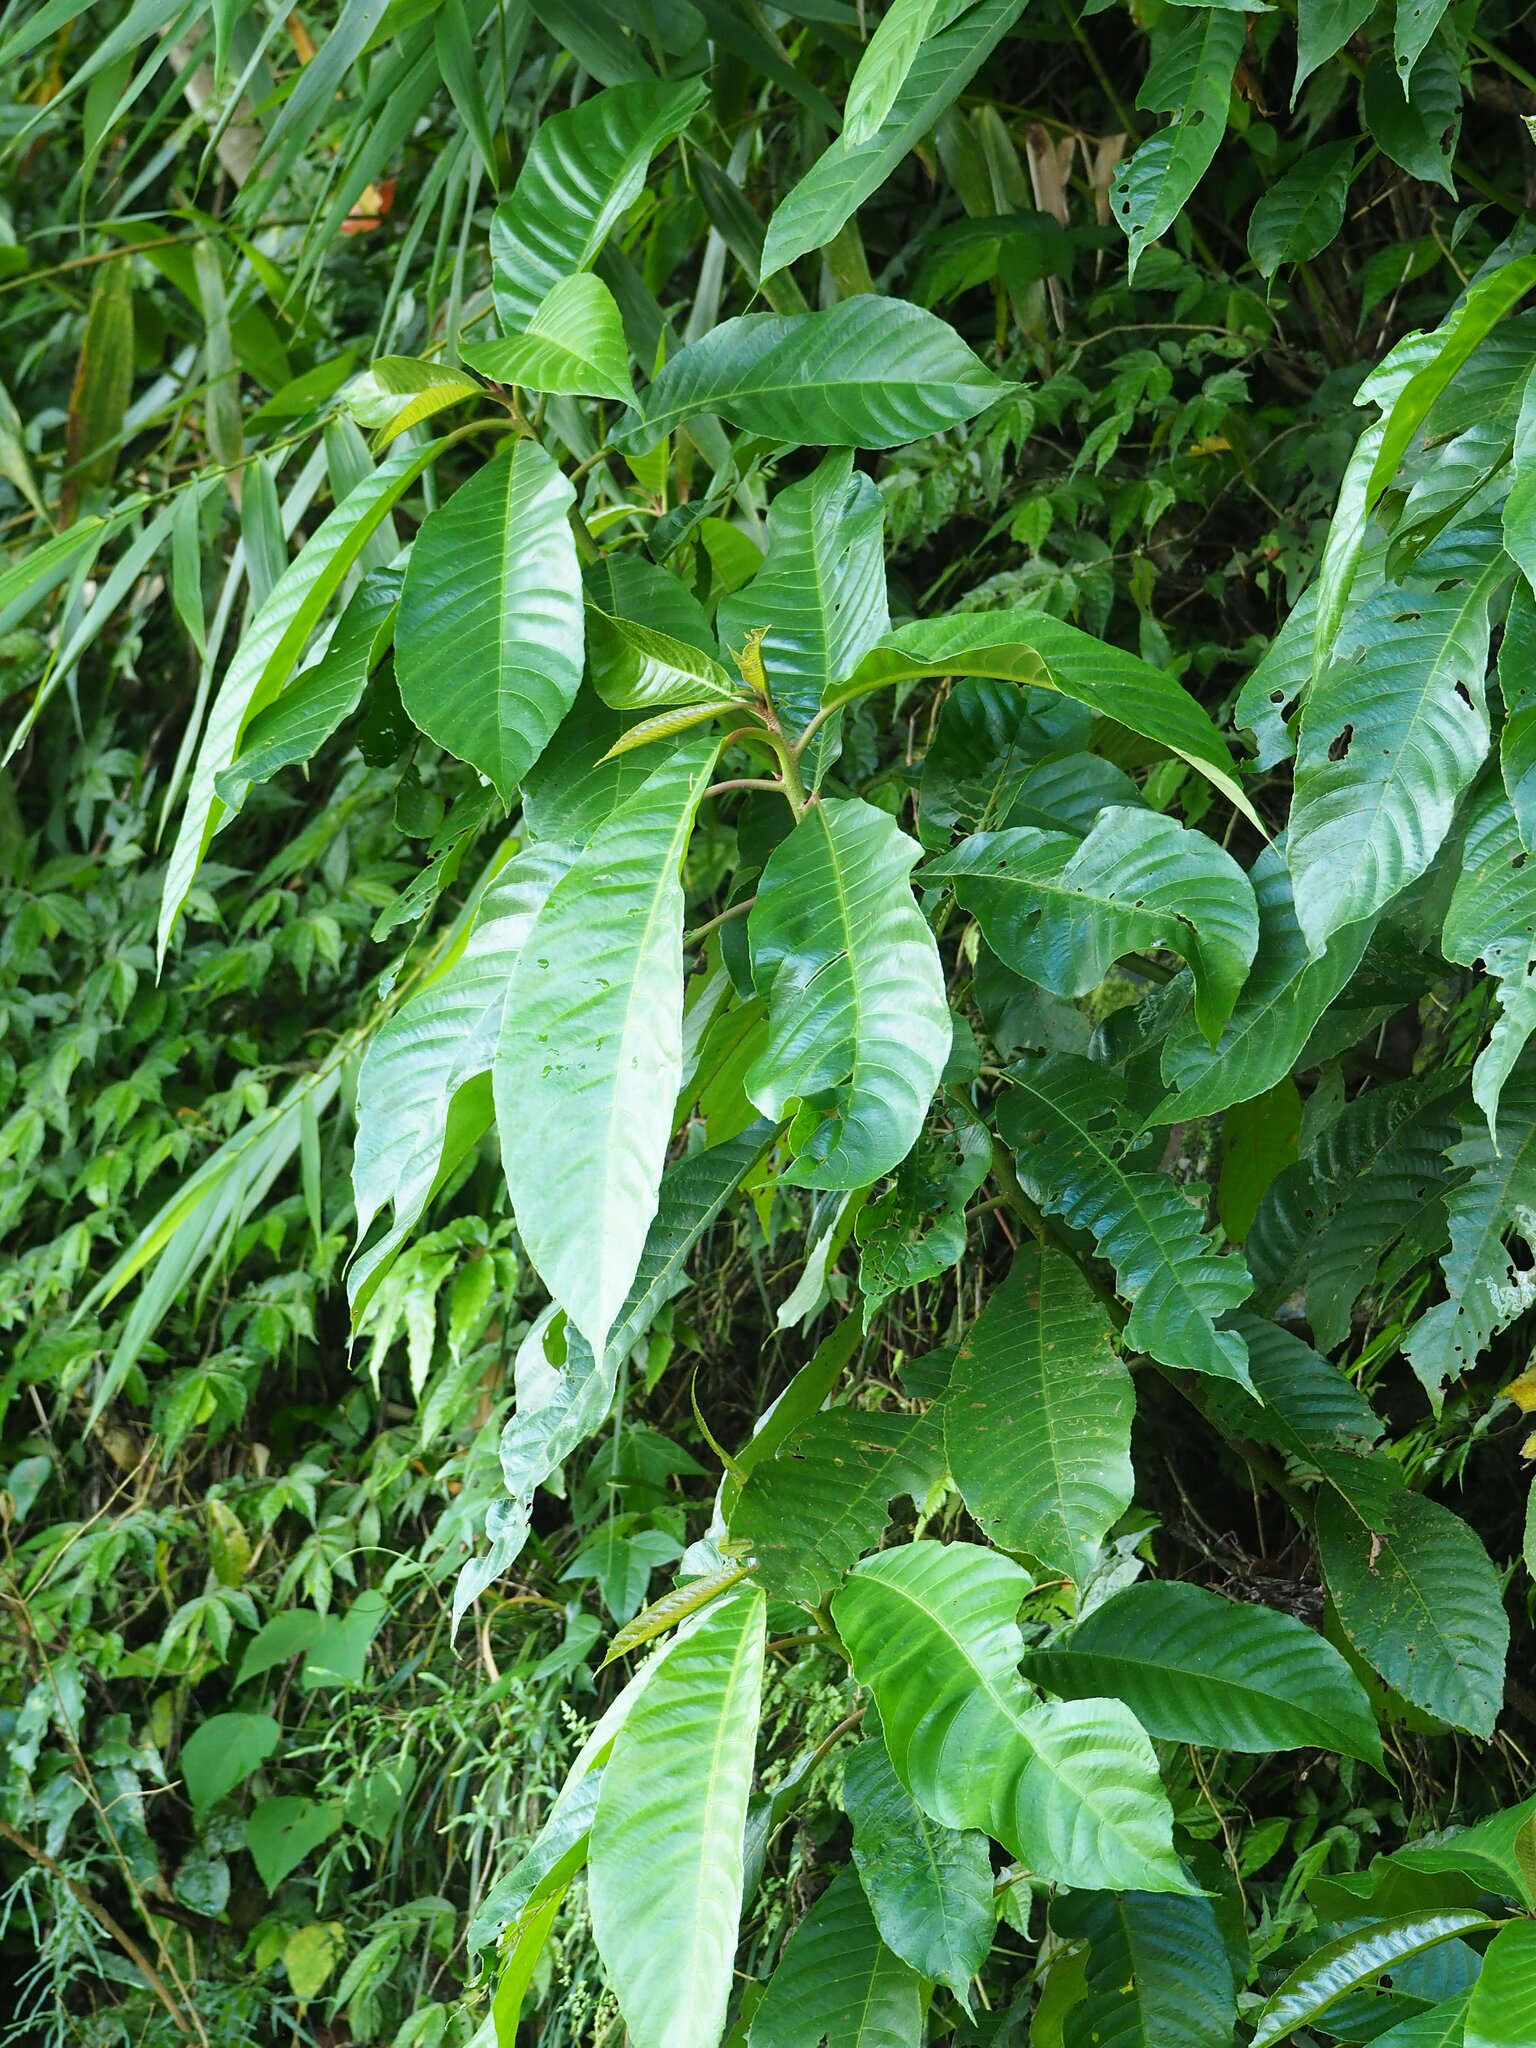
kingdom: Plantae
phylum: Tracheophyta
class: Magnoliopsida
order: Ericales
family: Actinidiaceae
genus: Saurauia
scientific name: Saurauia tristyla
